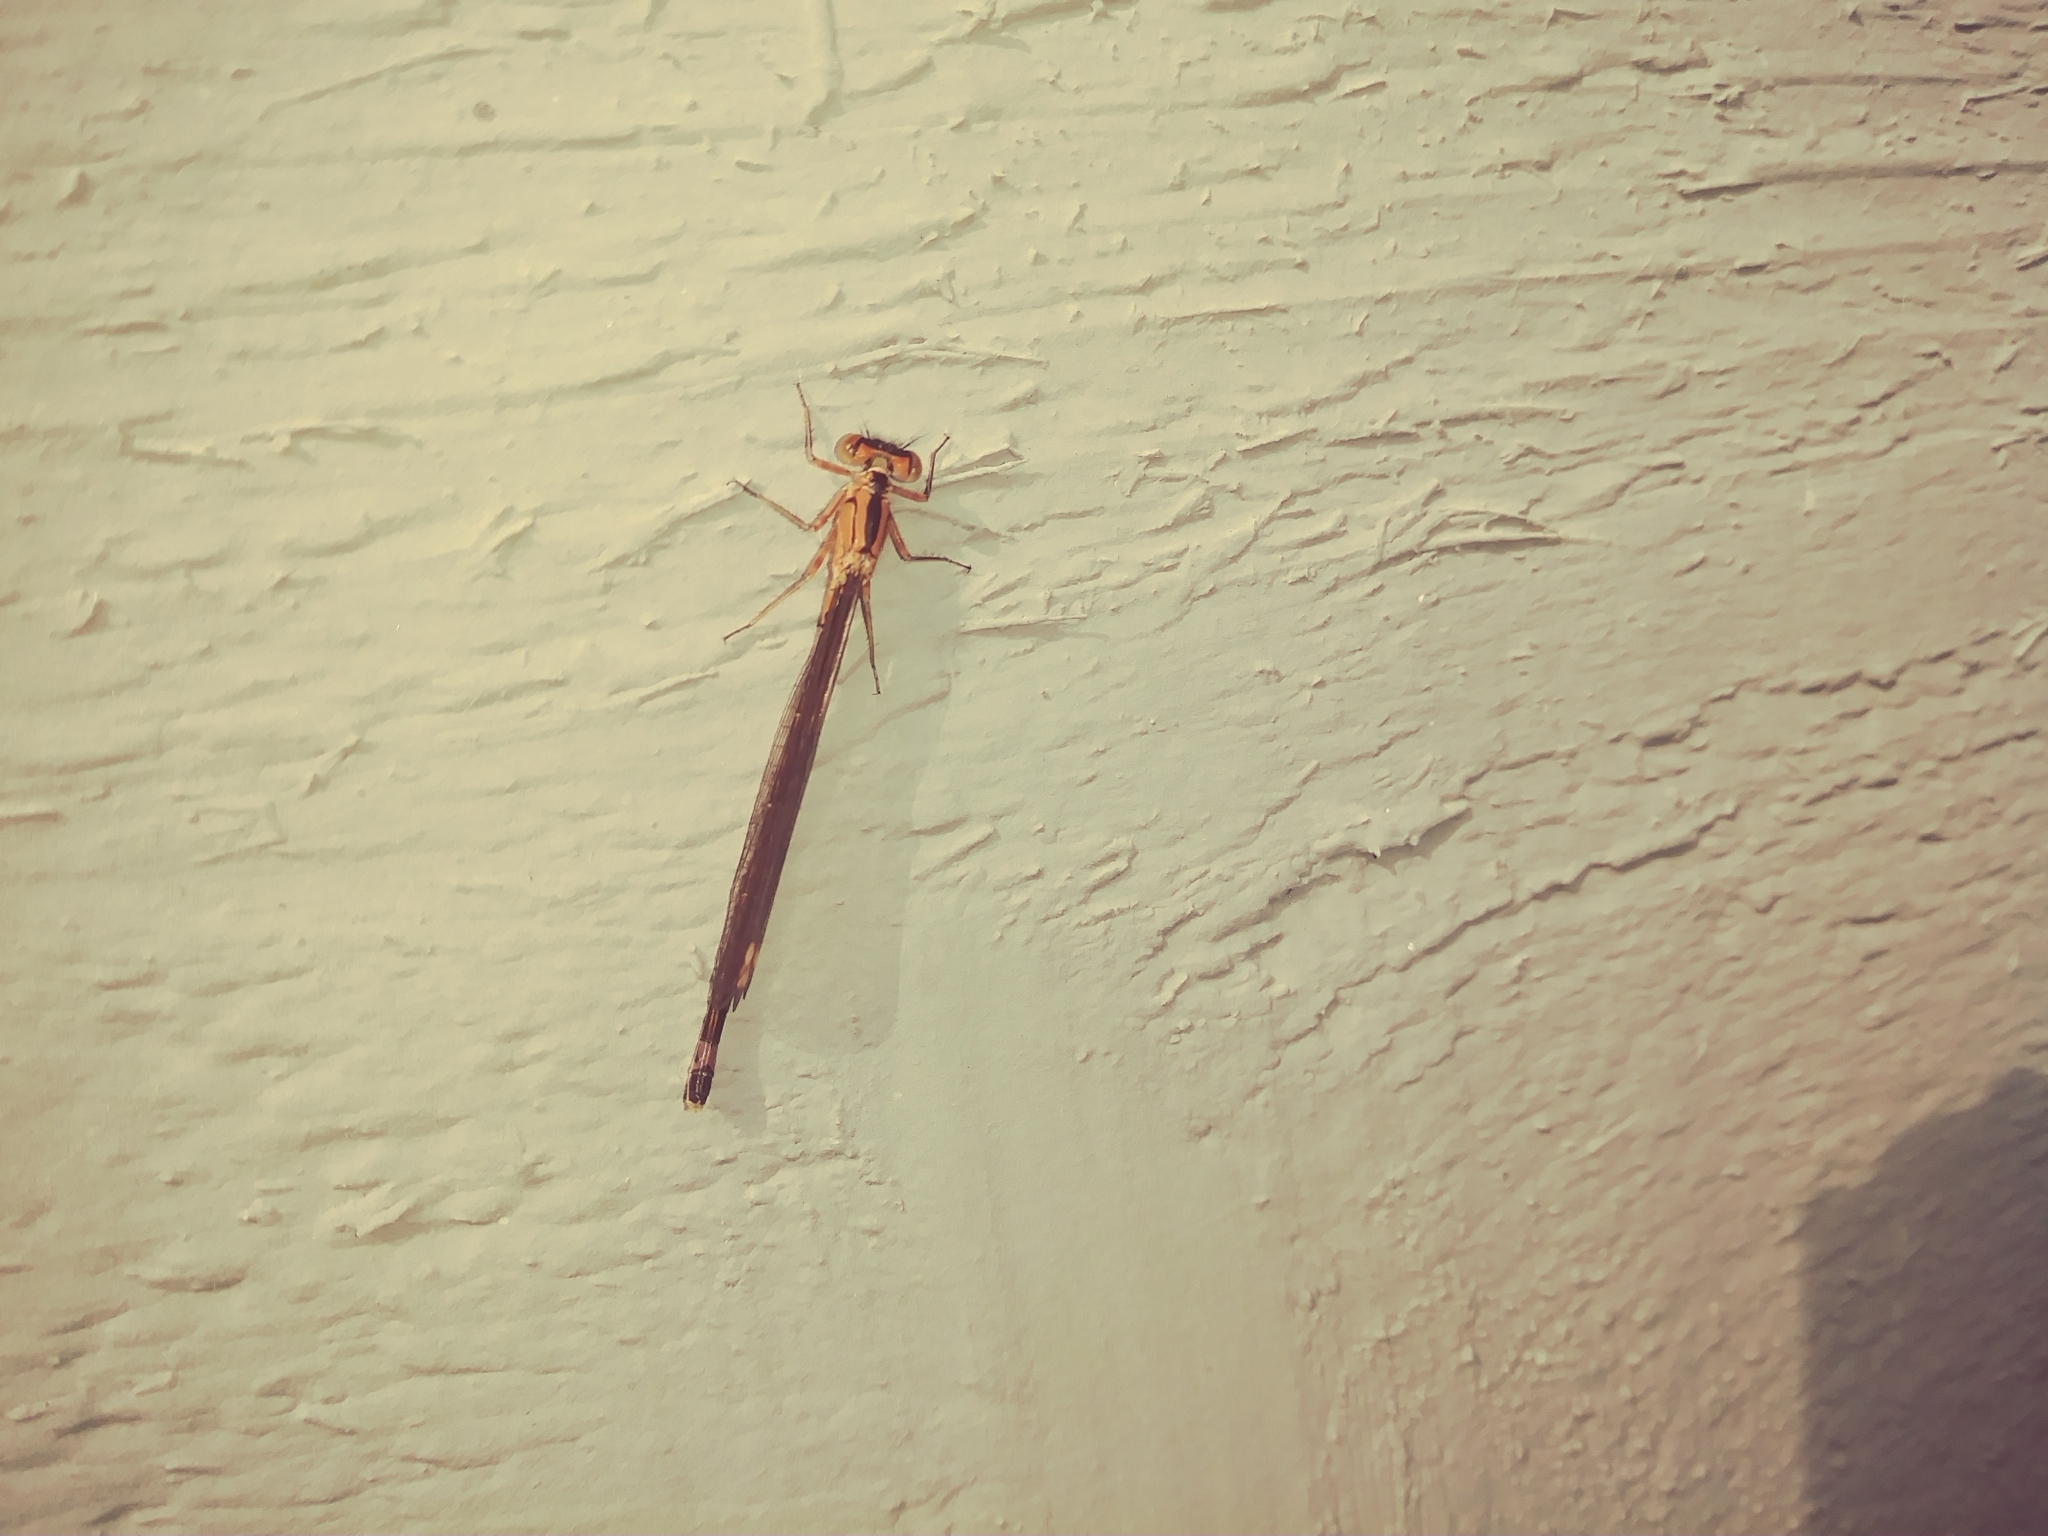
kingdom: Animalia
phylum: Arthropoda
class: Insecta
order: Odonata
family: Coenagrionidae
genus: Ischnura
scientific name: Ischnura cervula
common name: Pacific forktail
